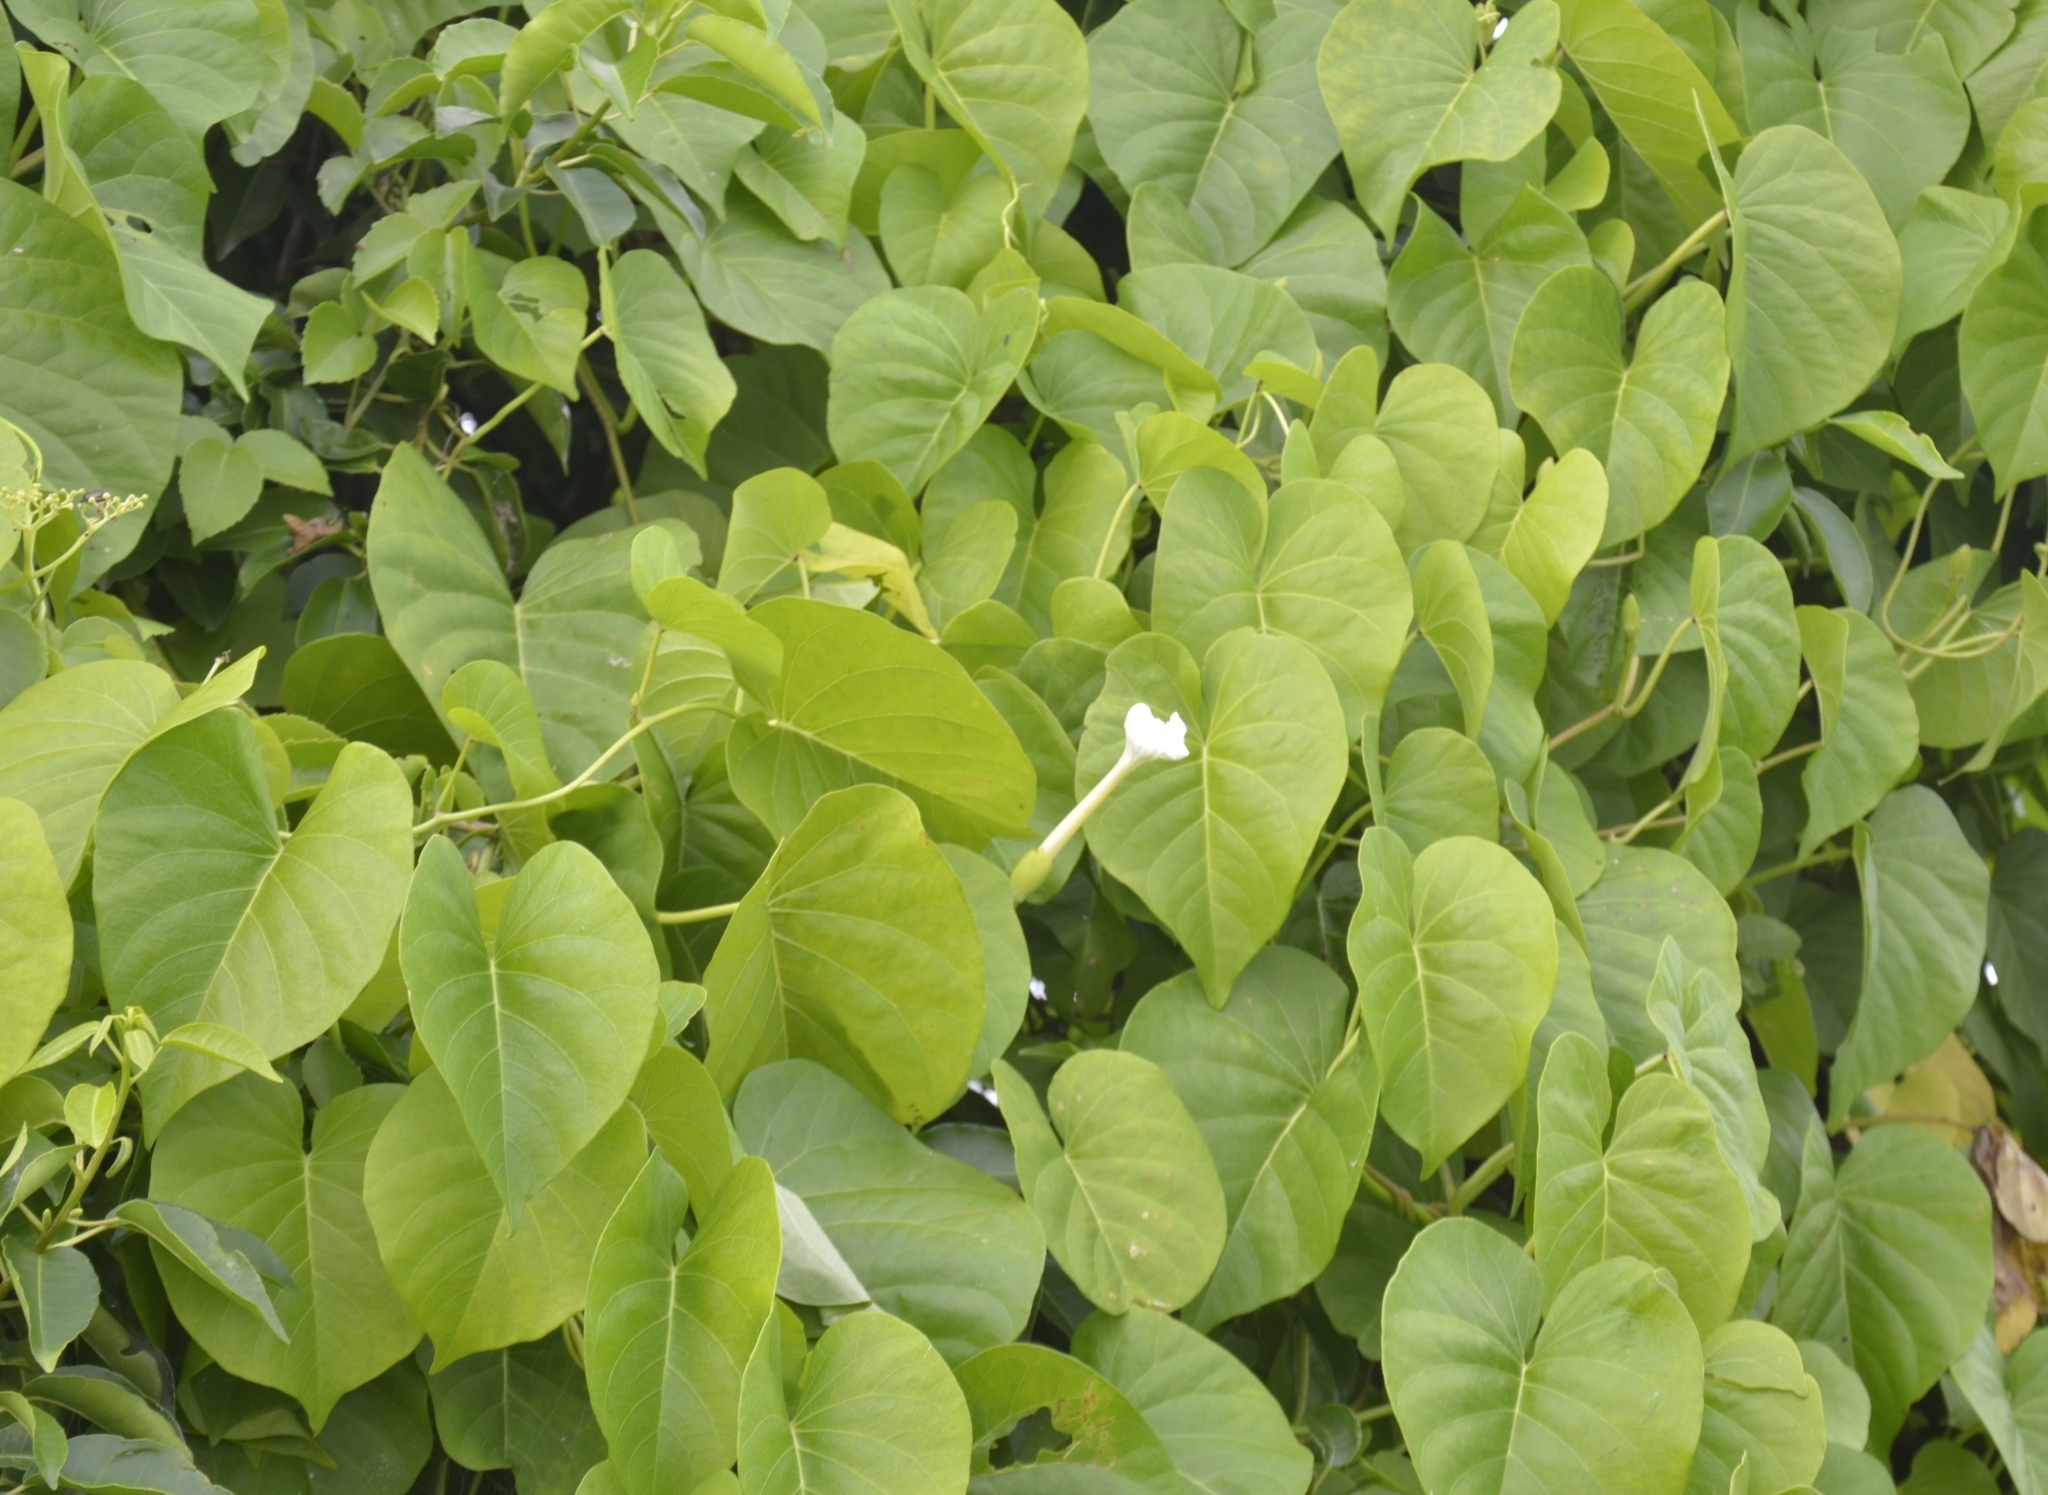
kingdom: Plantae
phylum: Tracheophyta
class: Magnoliopsida
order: Solanales
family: Convolvulaceae
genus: Ipomoea
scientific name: Ipomoea violacea
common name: Beach moonflower
